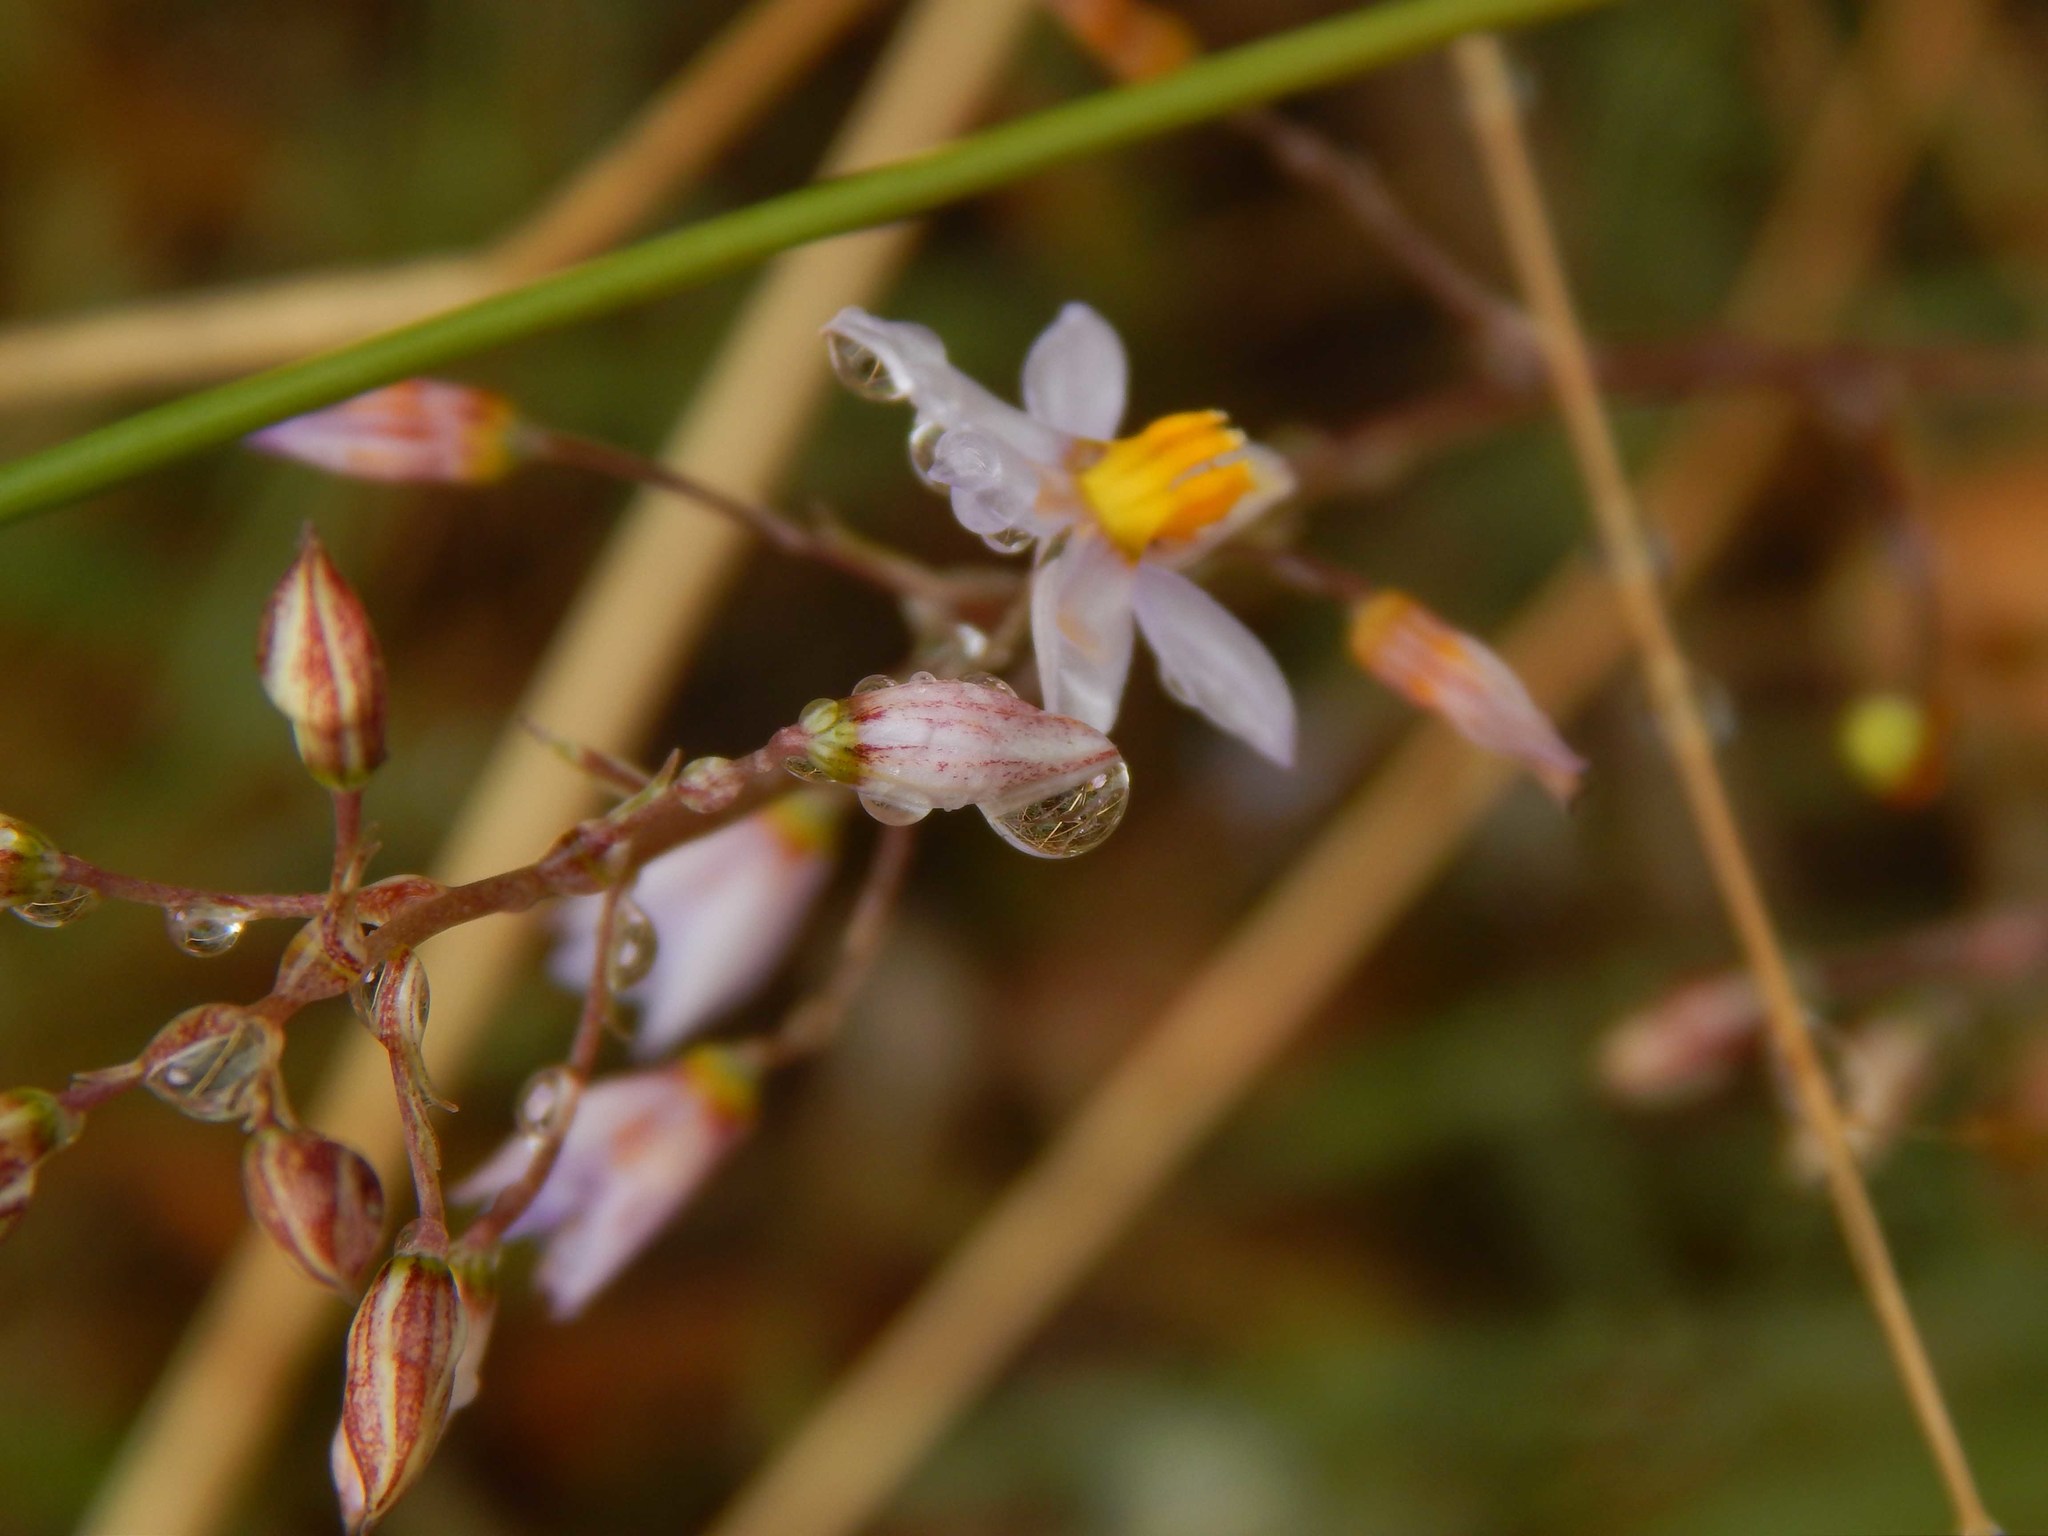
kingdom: Plantae
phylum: Tracheophyta
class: Liliopsida
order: Asparagales
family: Tecophilaeaceae
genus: Cyanella
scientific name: Cyanella hyacinthoides
